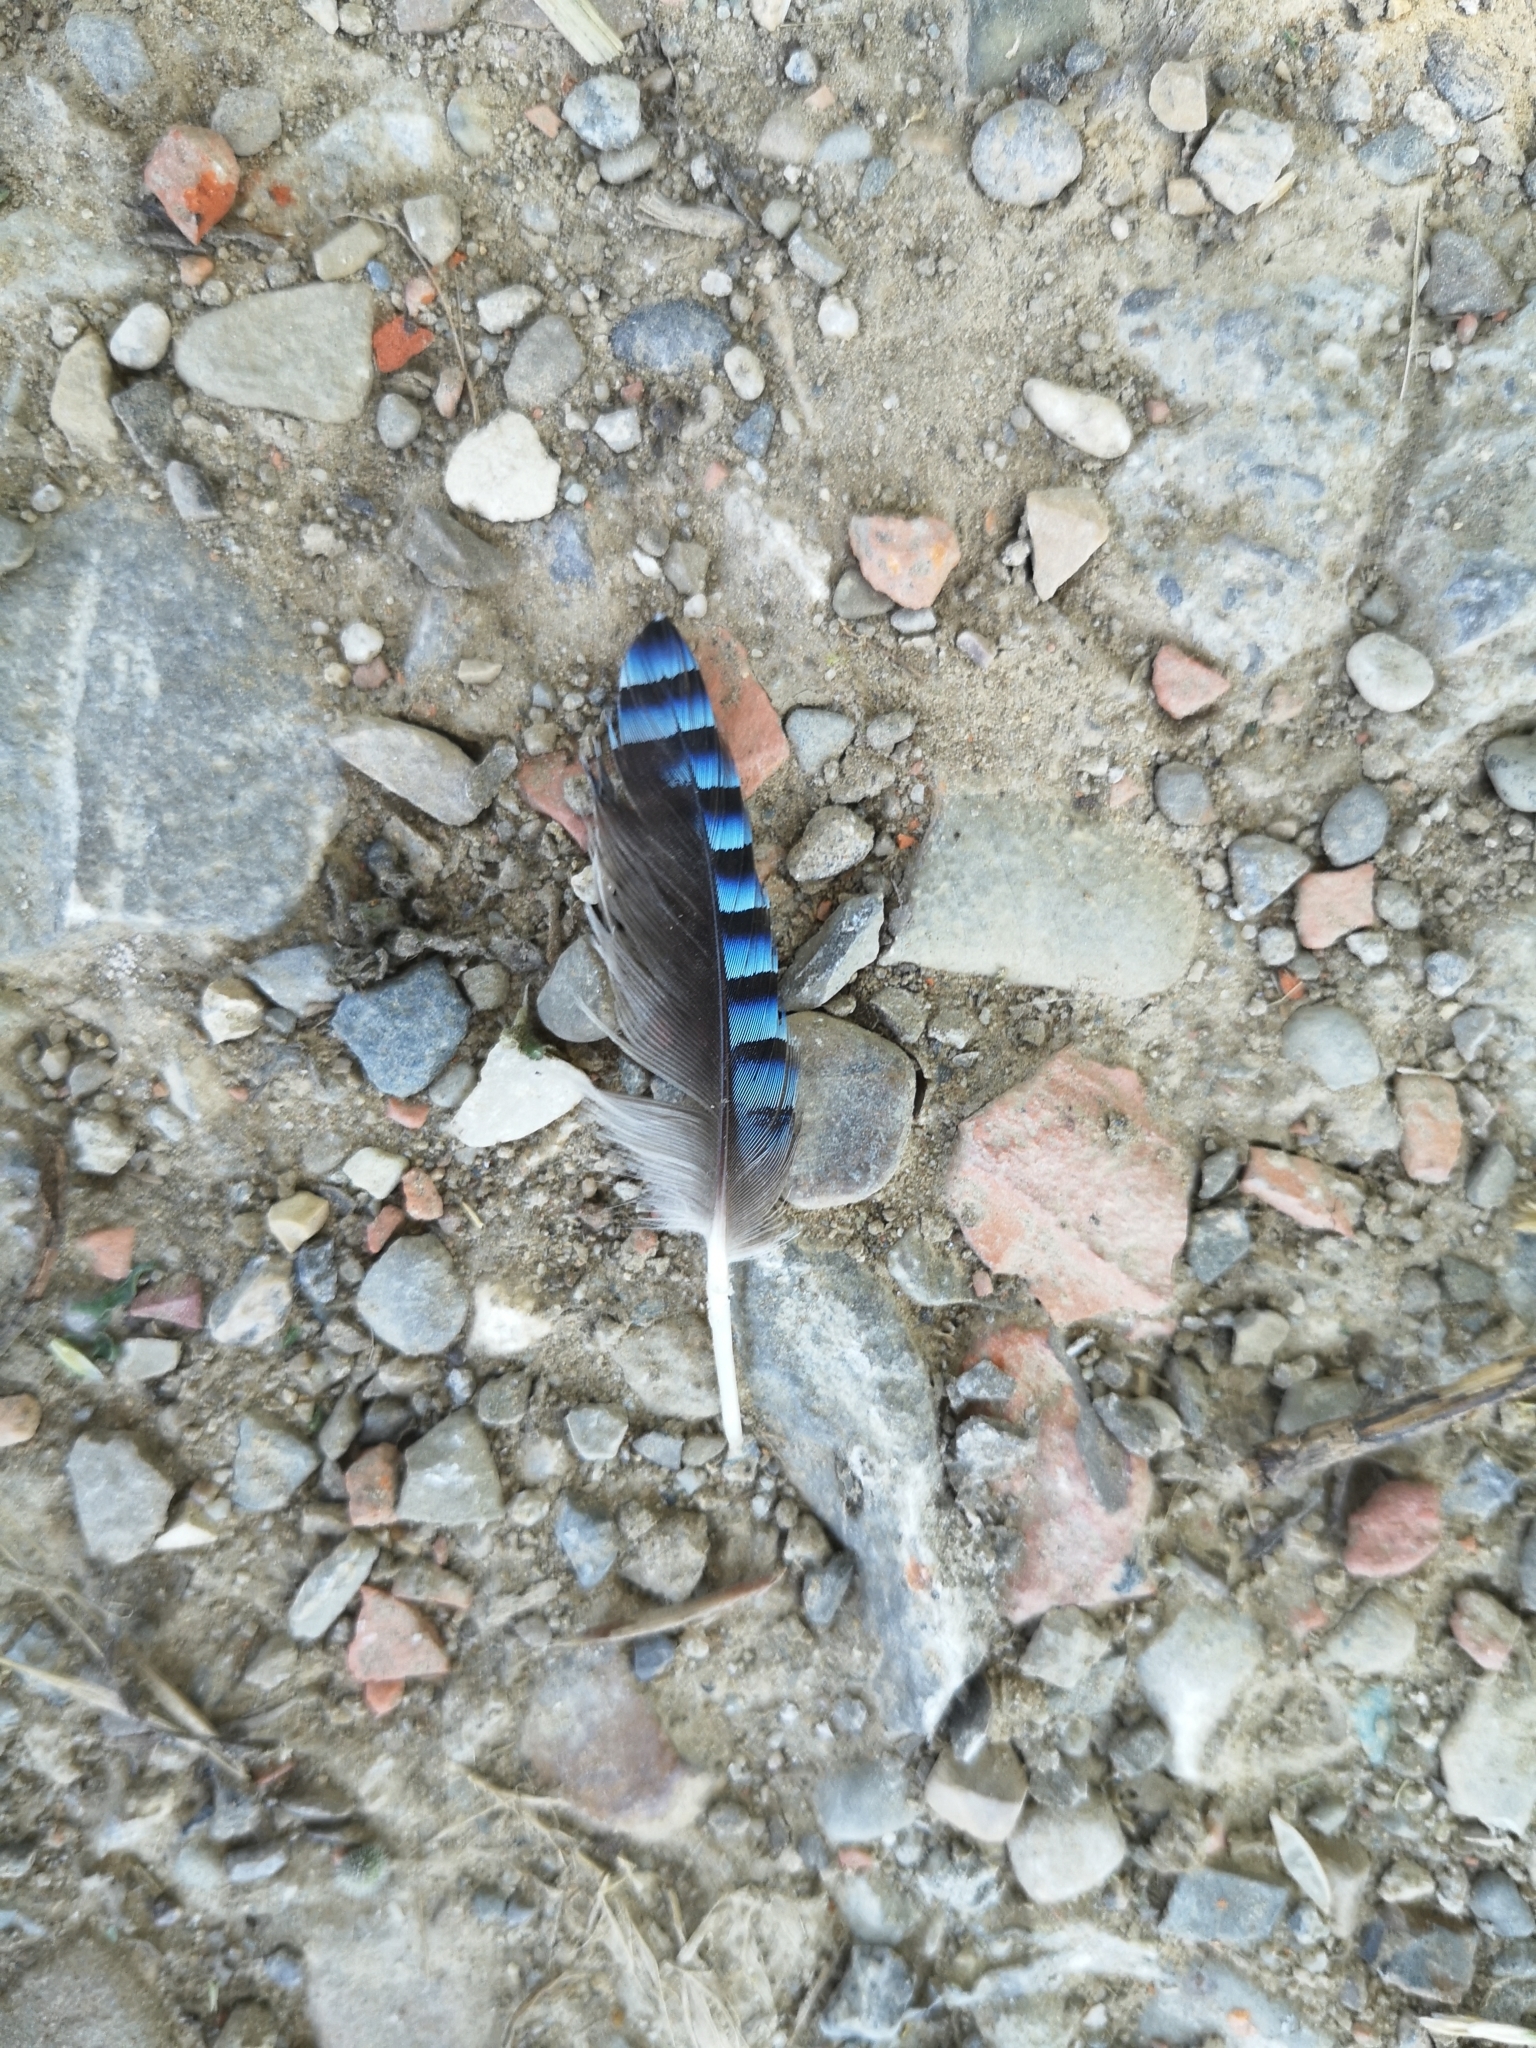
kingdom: Animalia
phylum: Chordata
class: Aves
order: Passeriformes
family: Corvidae
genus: Garrulus
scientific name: Garrulus glandarius
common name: Eurasian jay
